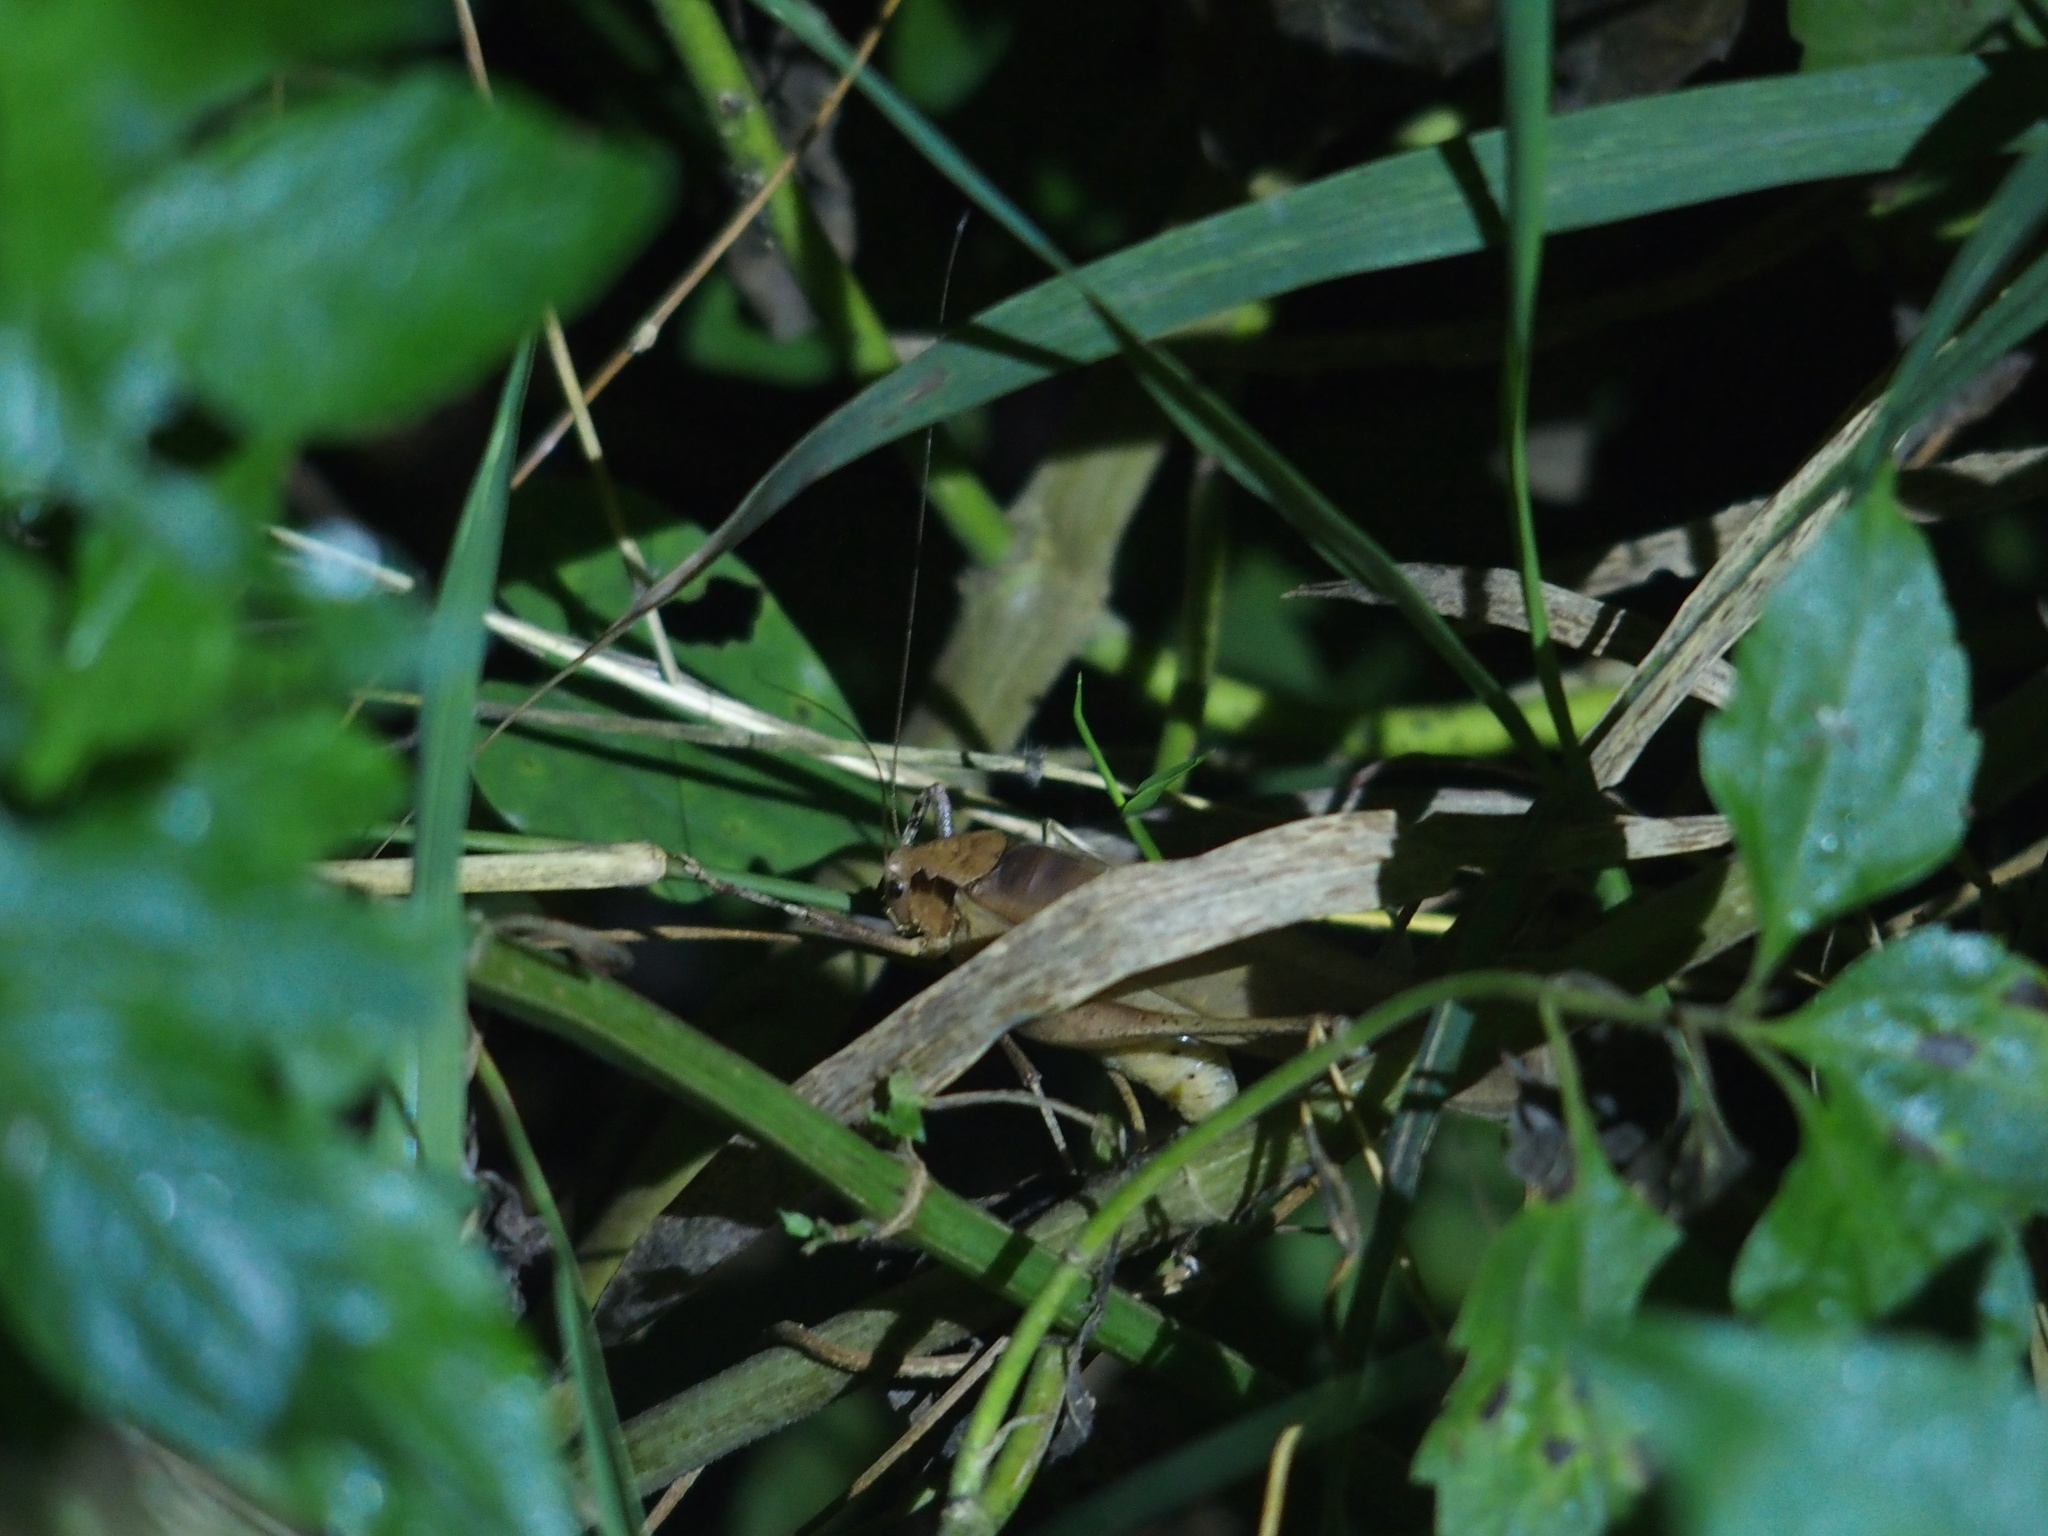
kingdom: Animalia
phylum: Arthropoda
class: Insecta
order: Orthoptera
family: Tettigoniidae
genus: Mecopoda
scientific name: Mecopoda elongata
